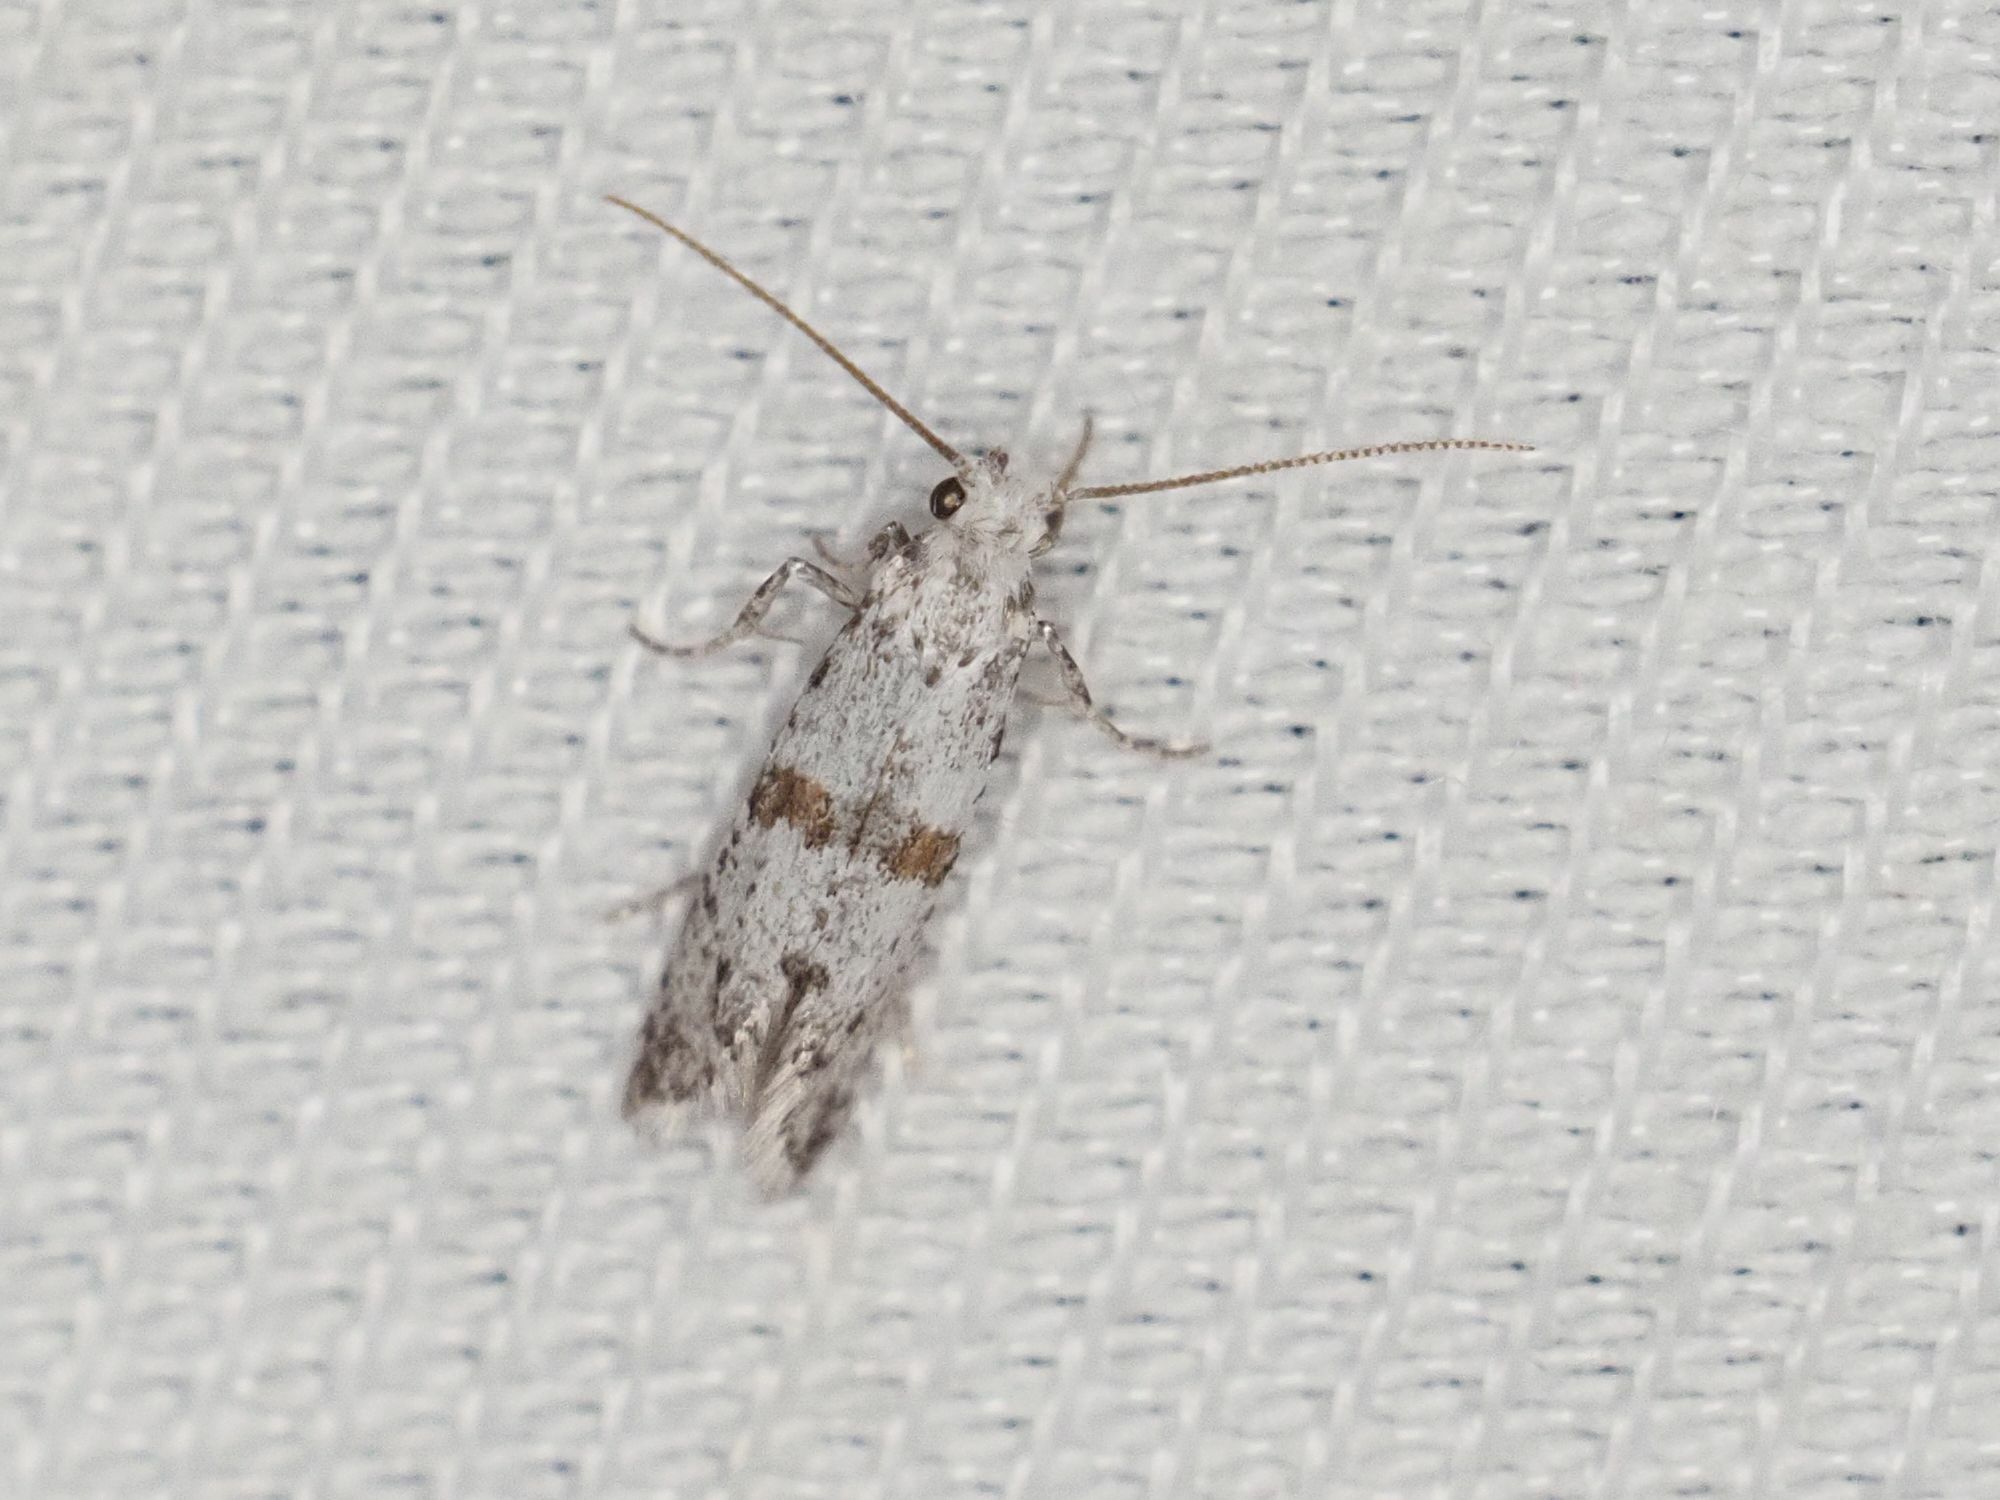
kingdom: Animalia
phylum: Arthropoda
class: Insecta
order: Lepidoptera
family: Yponomeutidae
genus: Scythropia
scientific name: Scythropia crataegella
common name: Hawthorn moth
